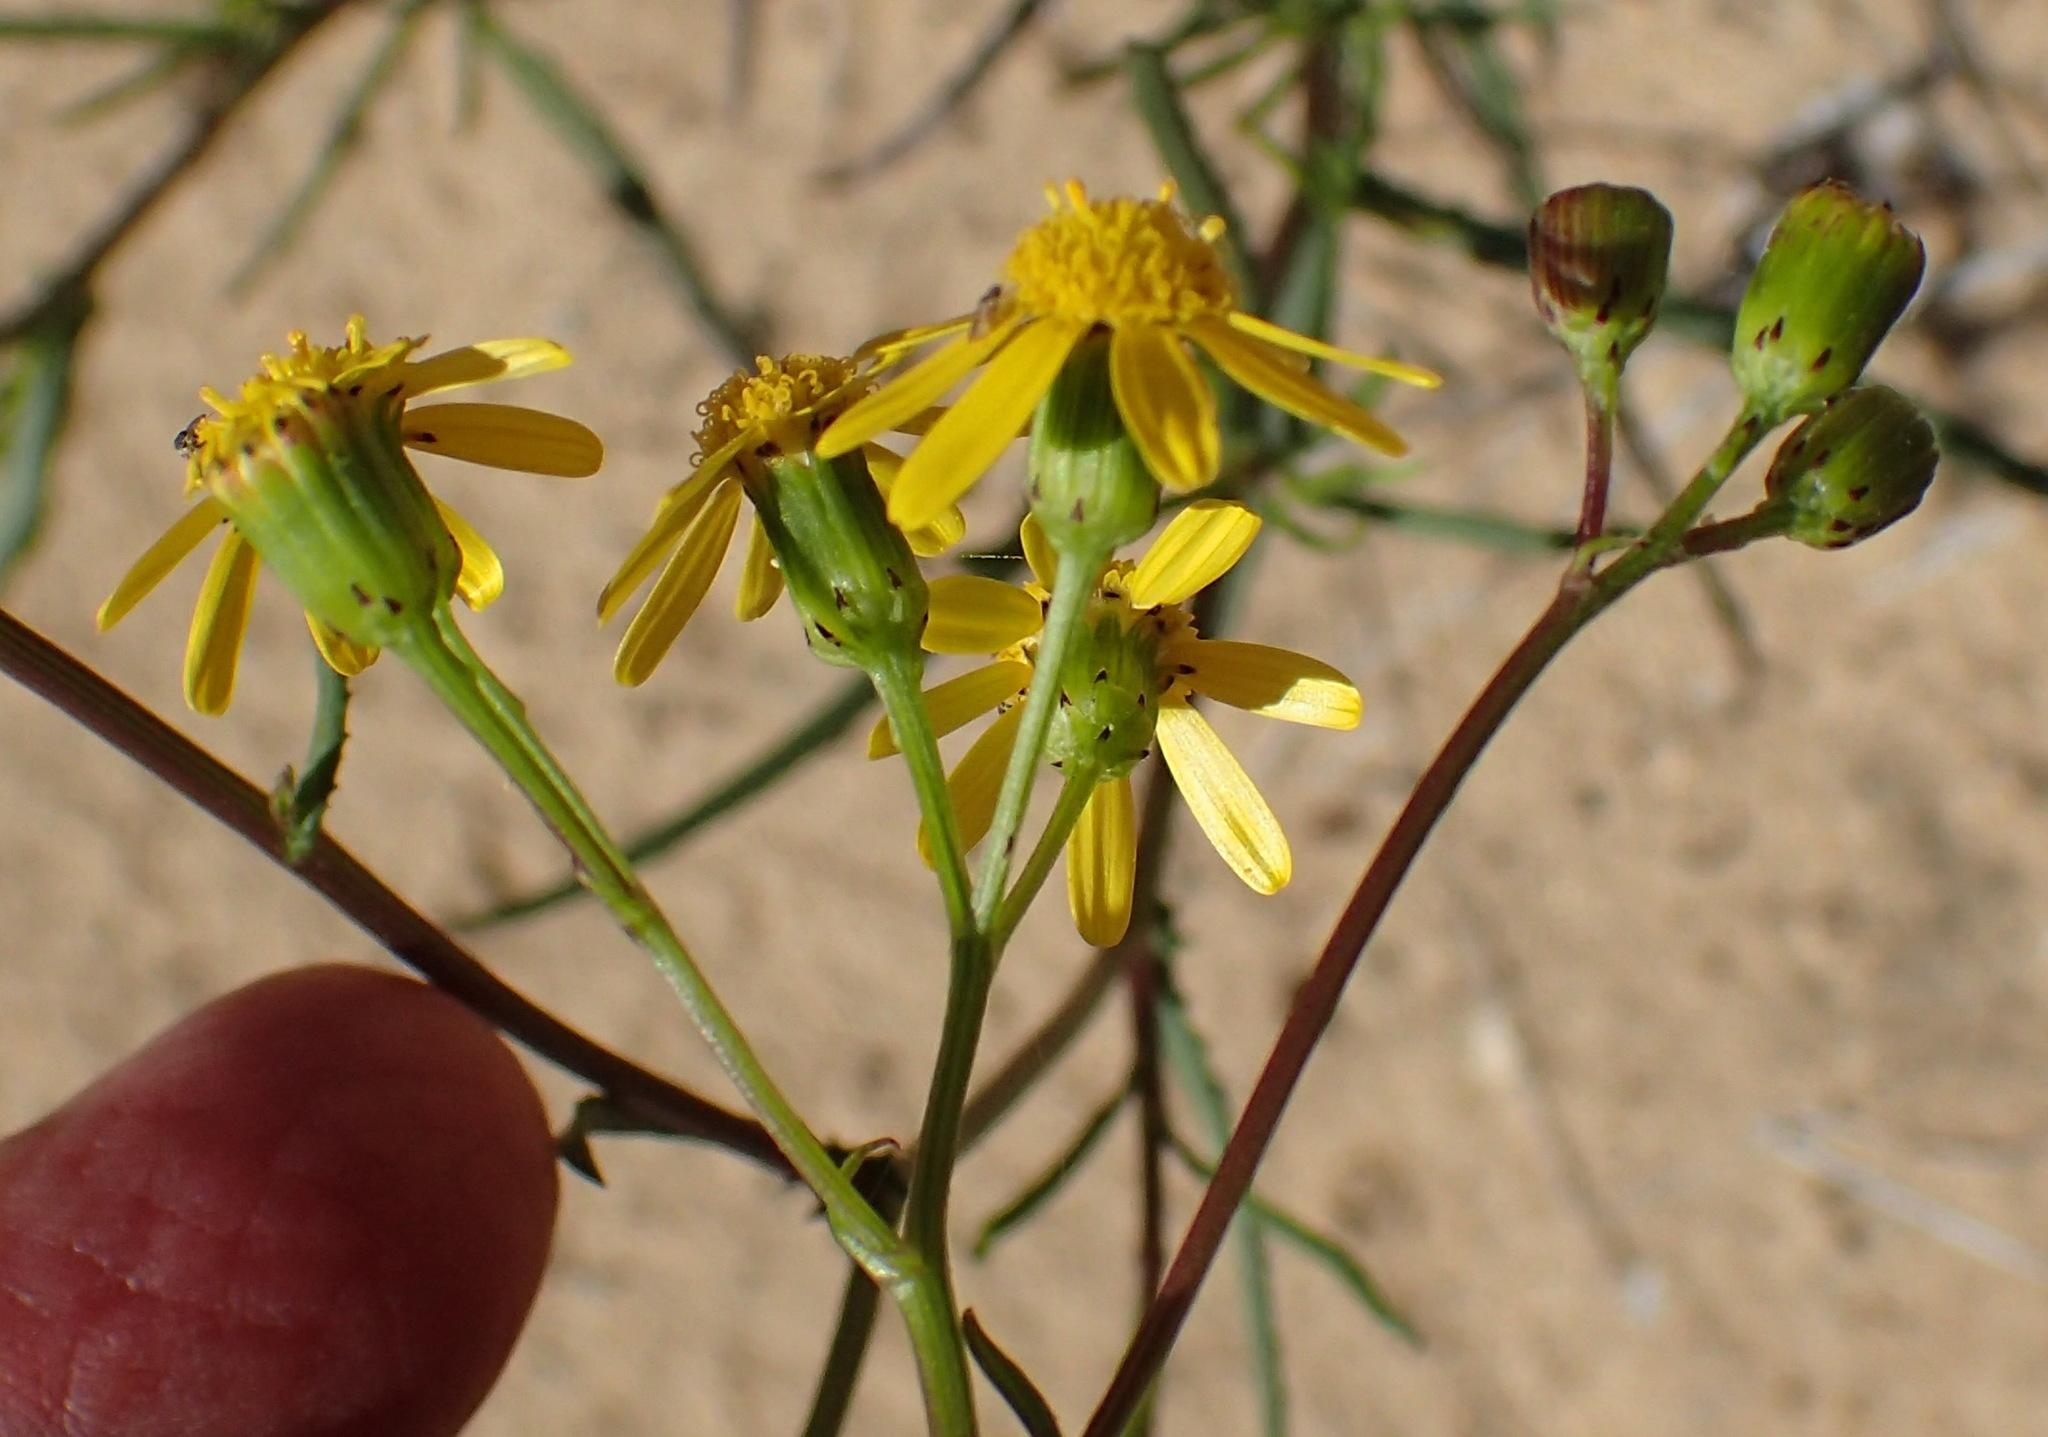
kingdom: Plantae
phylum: Tracheophyta
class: Magnoliopsida
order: Asterales
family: Asteraceae
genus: Senecio
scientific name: Senecio burchellii
